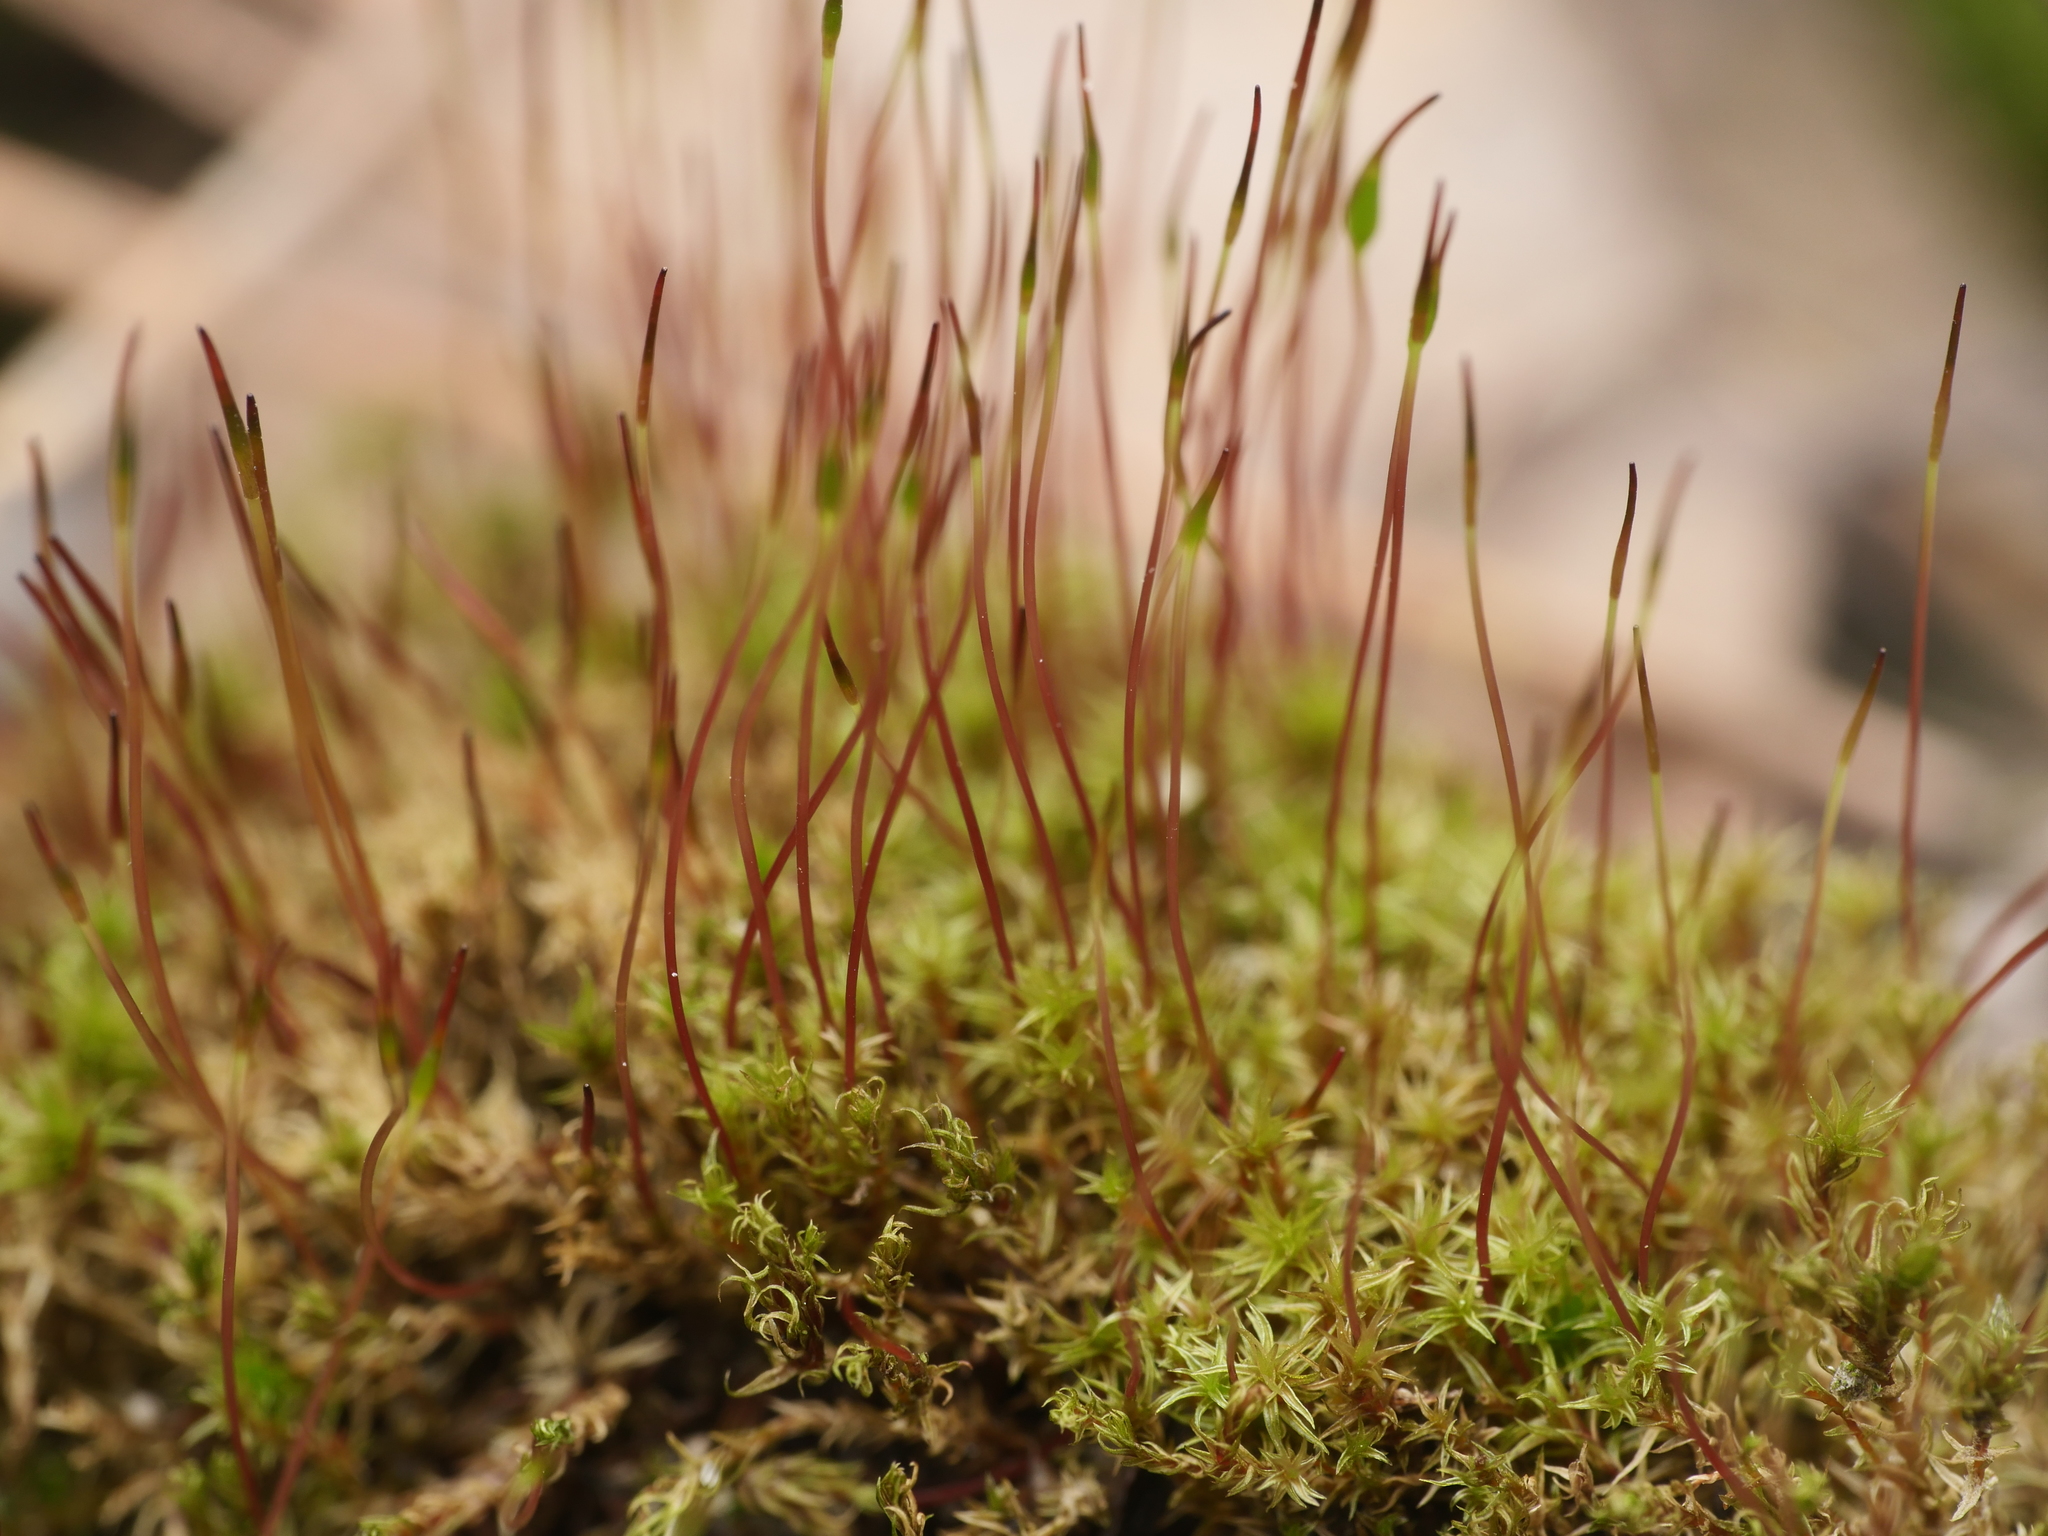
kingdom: Plantae
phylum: Bryophyta
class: Bryopsida
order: Dicranales
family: Ditrichaceae
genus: Ceratodon
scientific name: Ceratodon purpureus
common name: Redshank
